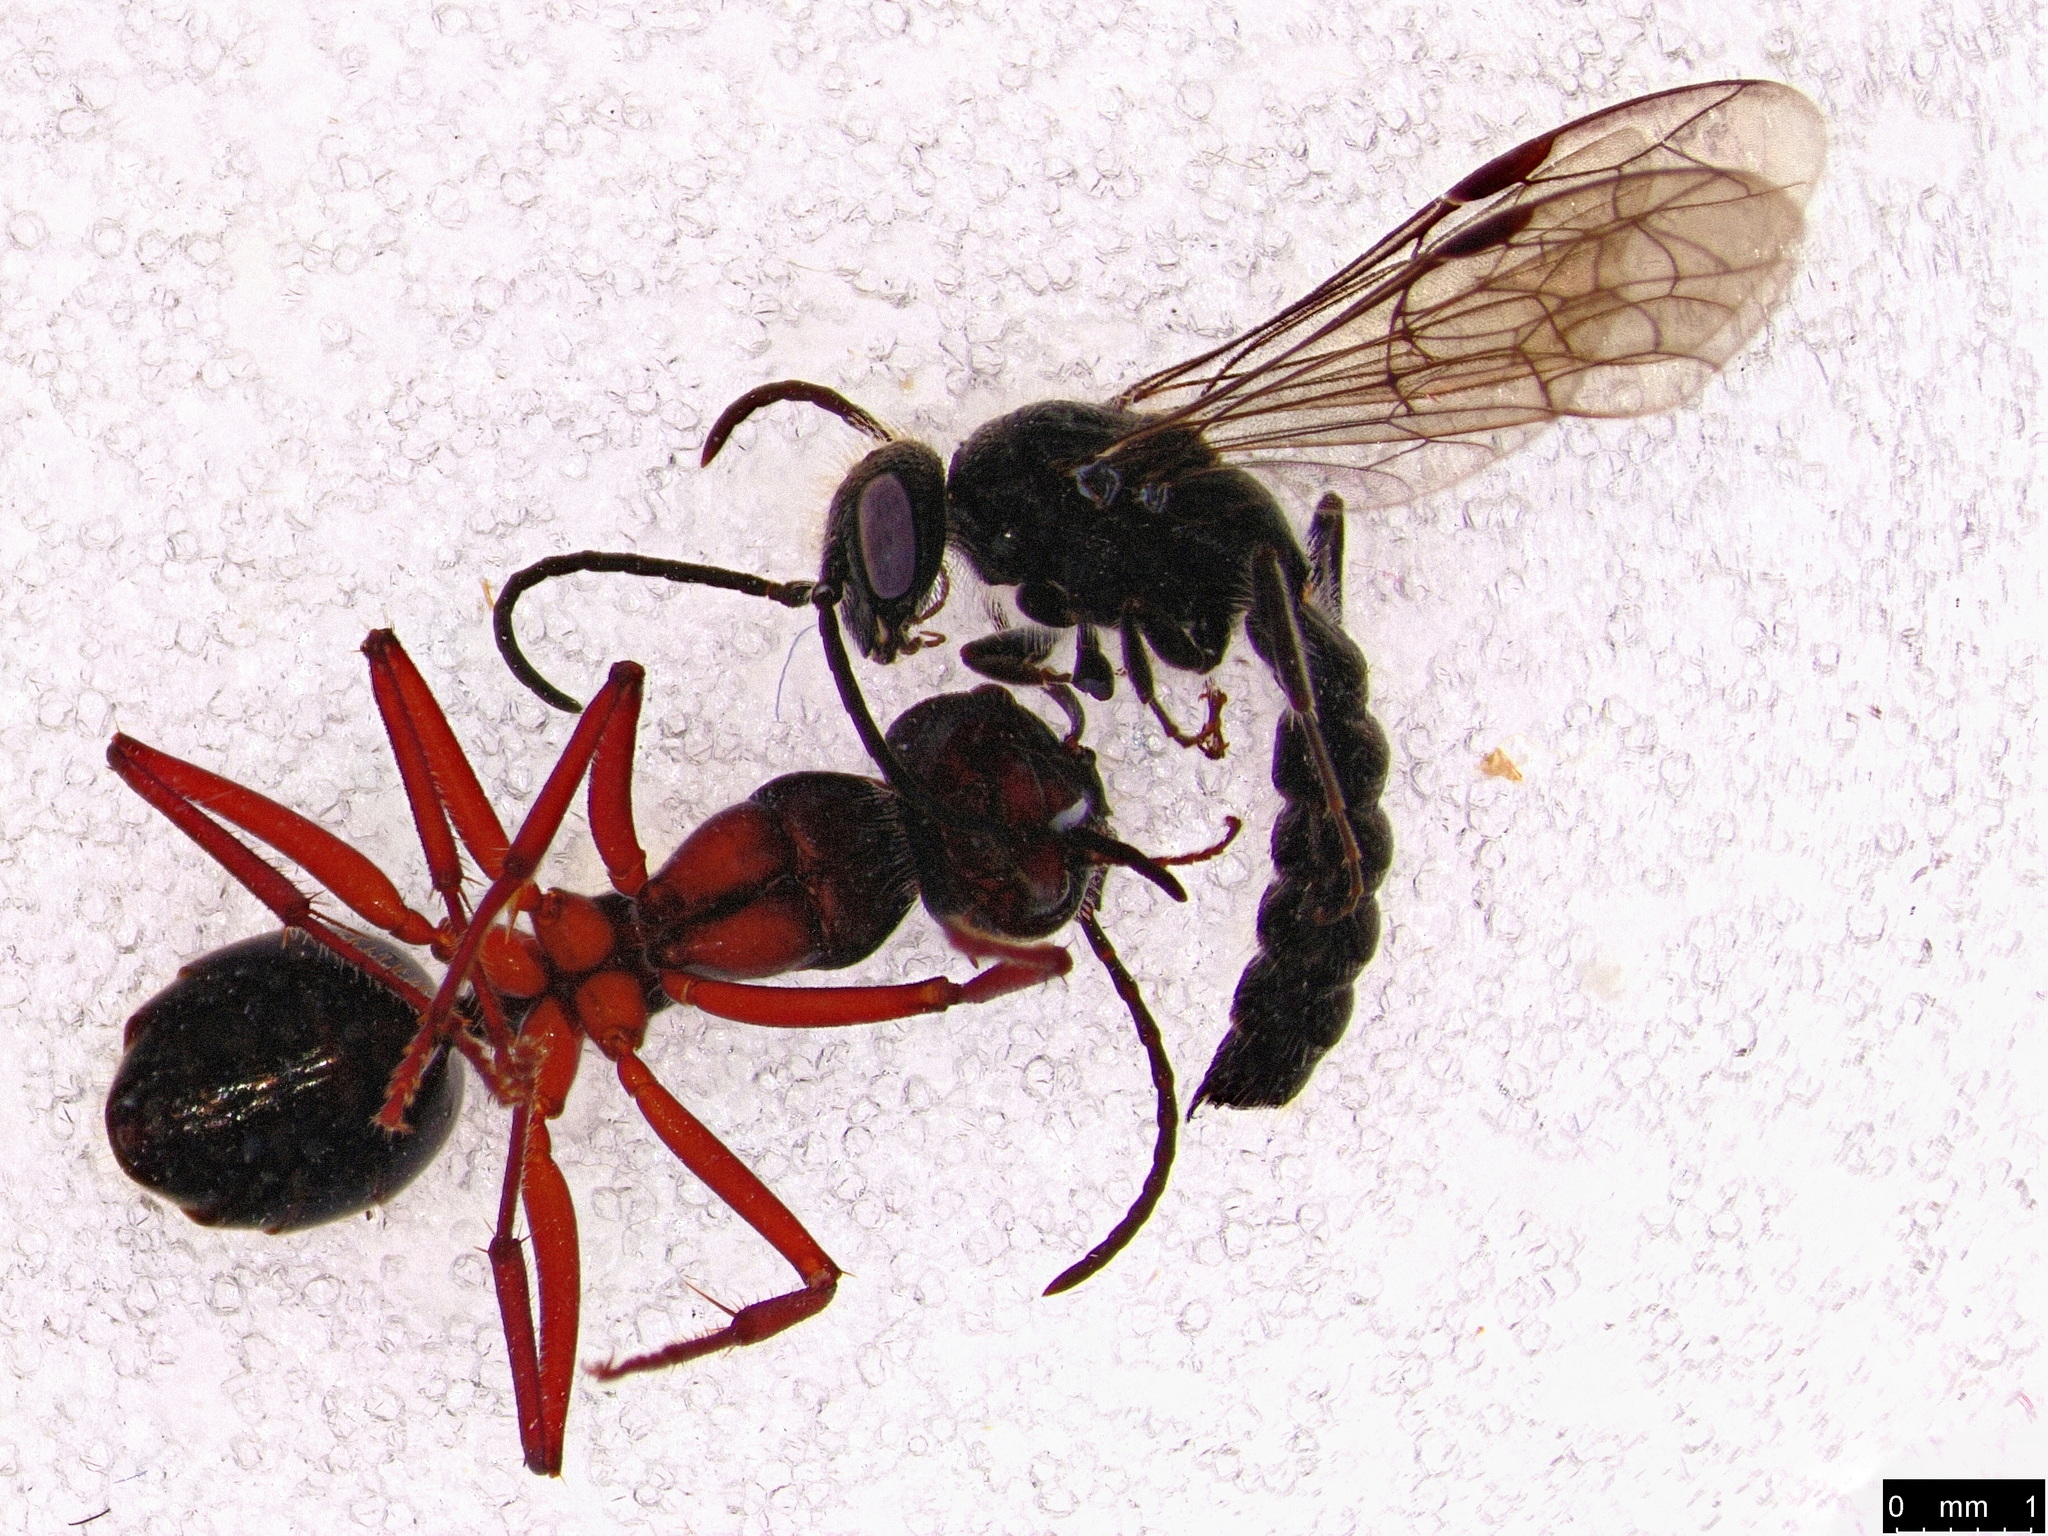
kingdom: Animalia
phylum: Arthropoda
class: Insecta
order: Hymenoptera
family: Formicidae
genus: Camponotus
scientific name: Camponotus suffusus
